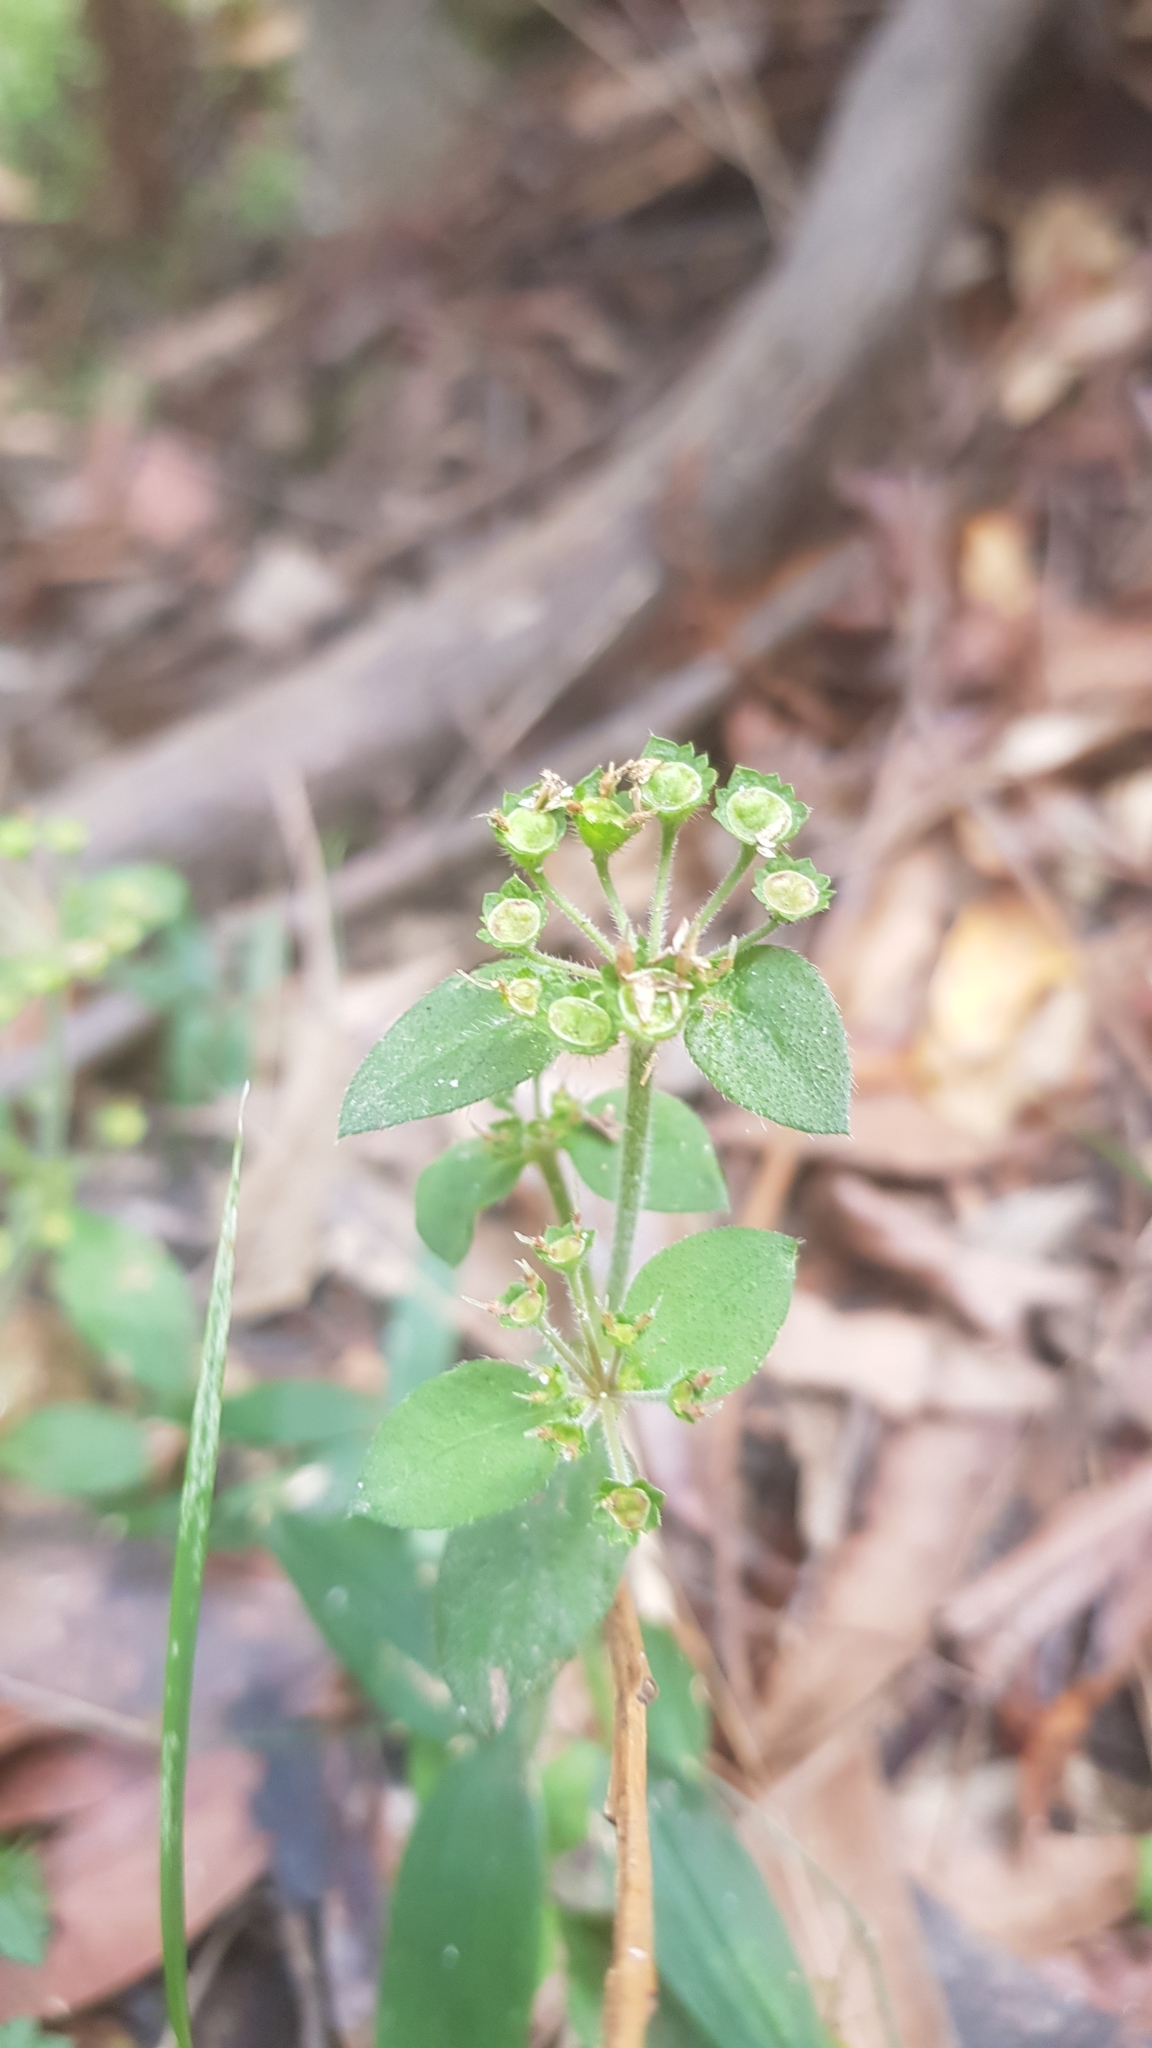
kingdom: Plantae
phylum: Tracheophyta
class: Magnoliopsida
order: Gentianales
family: Rubiaceae
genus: Pomax
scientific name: Pomax umbellata
